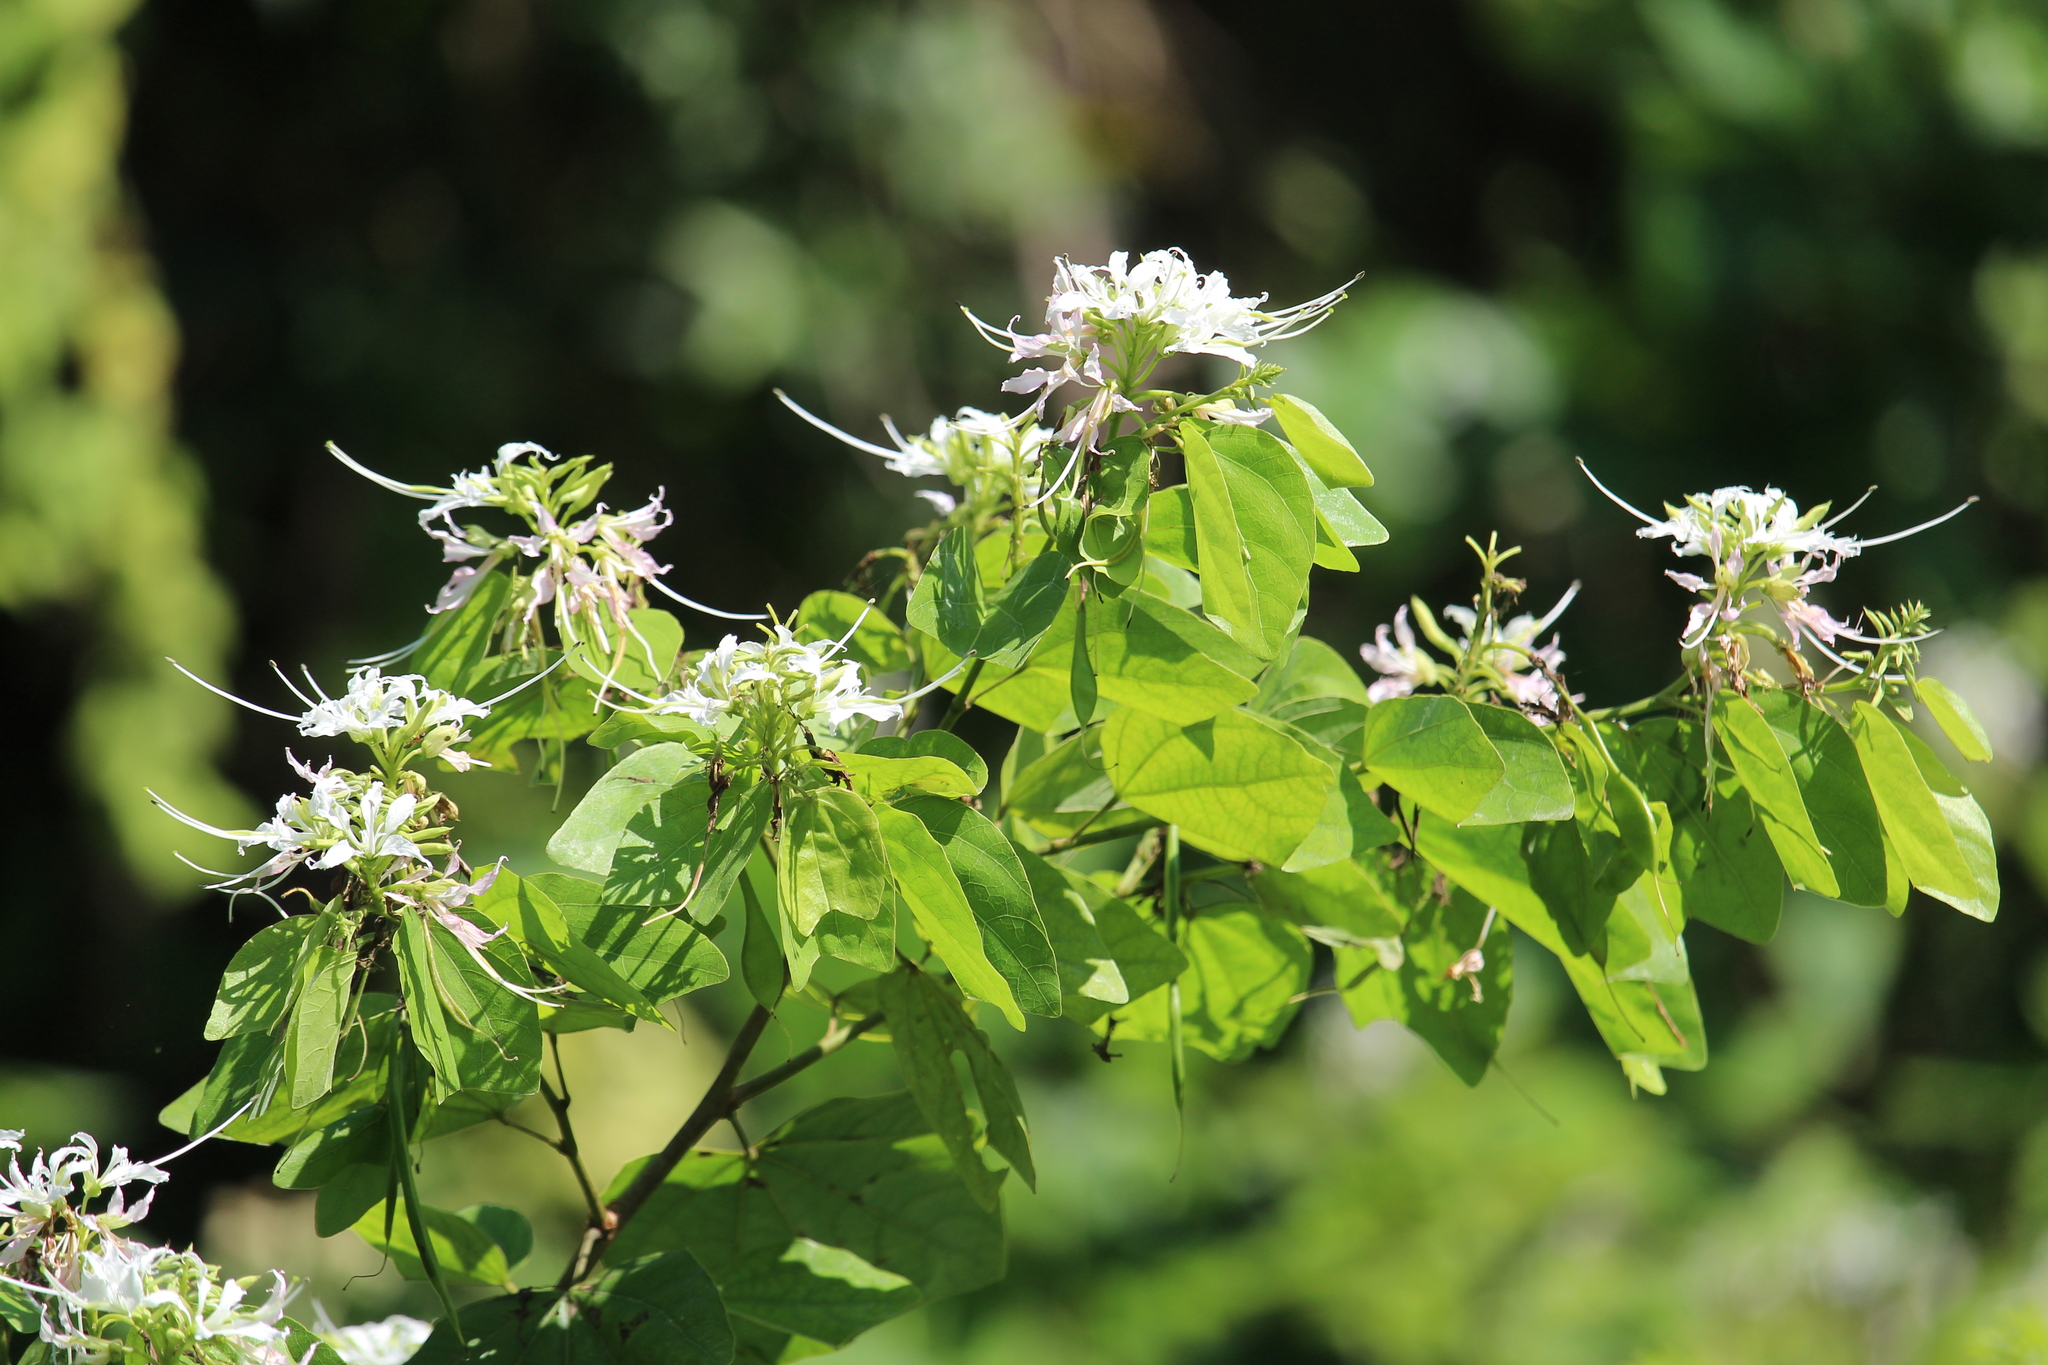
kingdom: Plantae
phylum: Tracheophyta
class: Magnoliopsida
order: Fabales
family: Fabaceae
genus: Bauhinia
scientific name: Bauhinia divaricata
